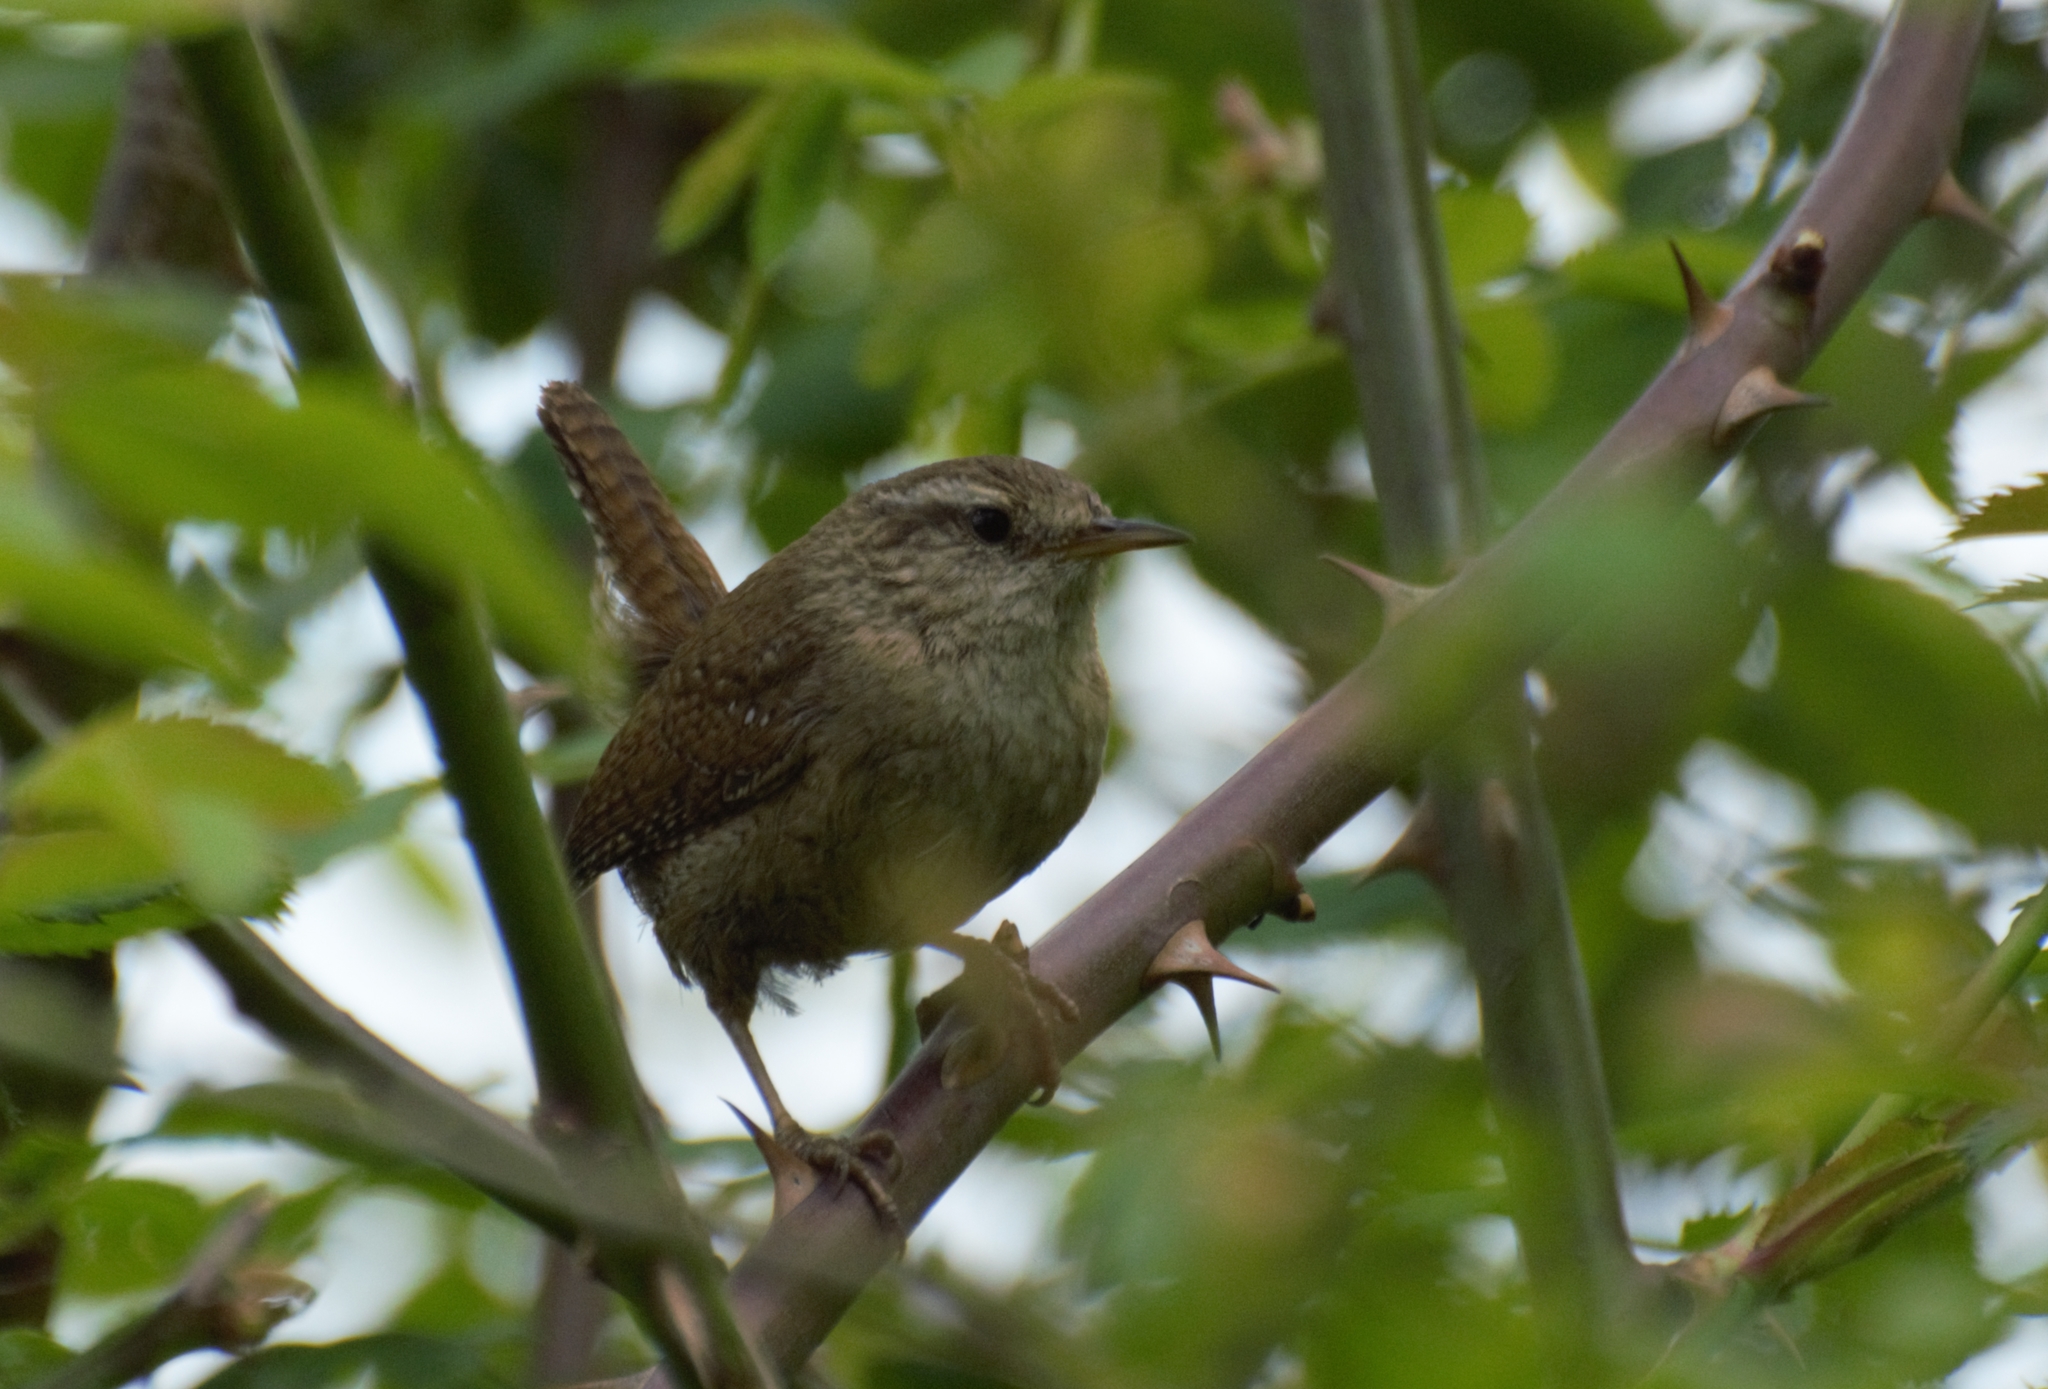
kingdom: Animalia
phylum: Chordata
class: Aves
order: Passeriformes
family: Troglodytidae
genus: Troglodytes
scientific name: Troglodytes troglodytes
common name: Eurasian wren
